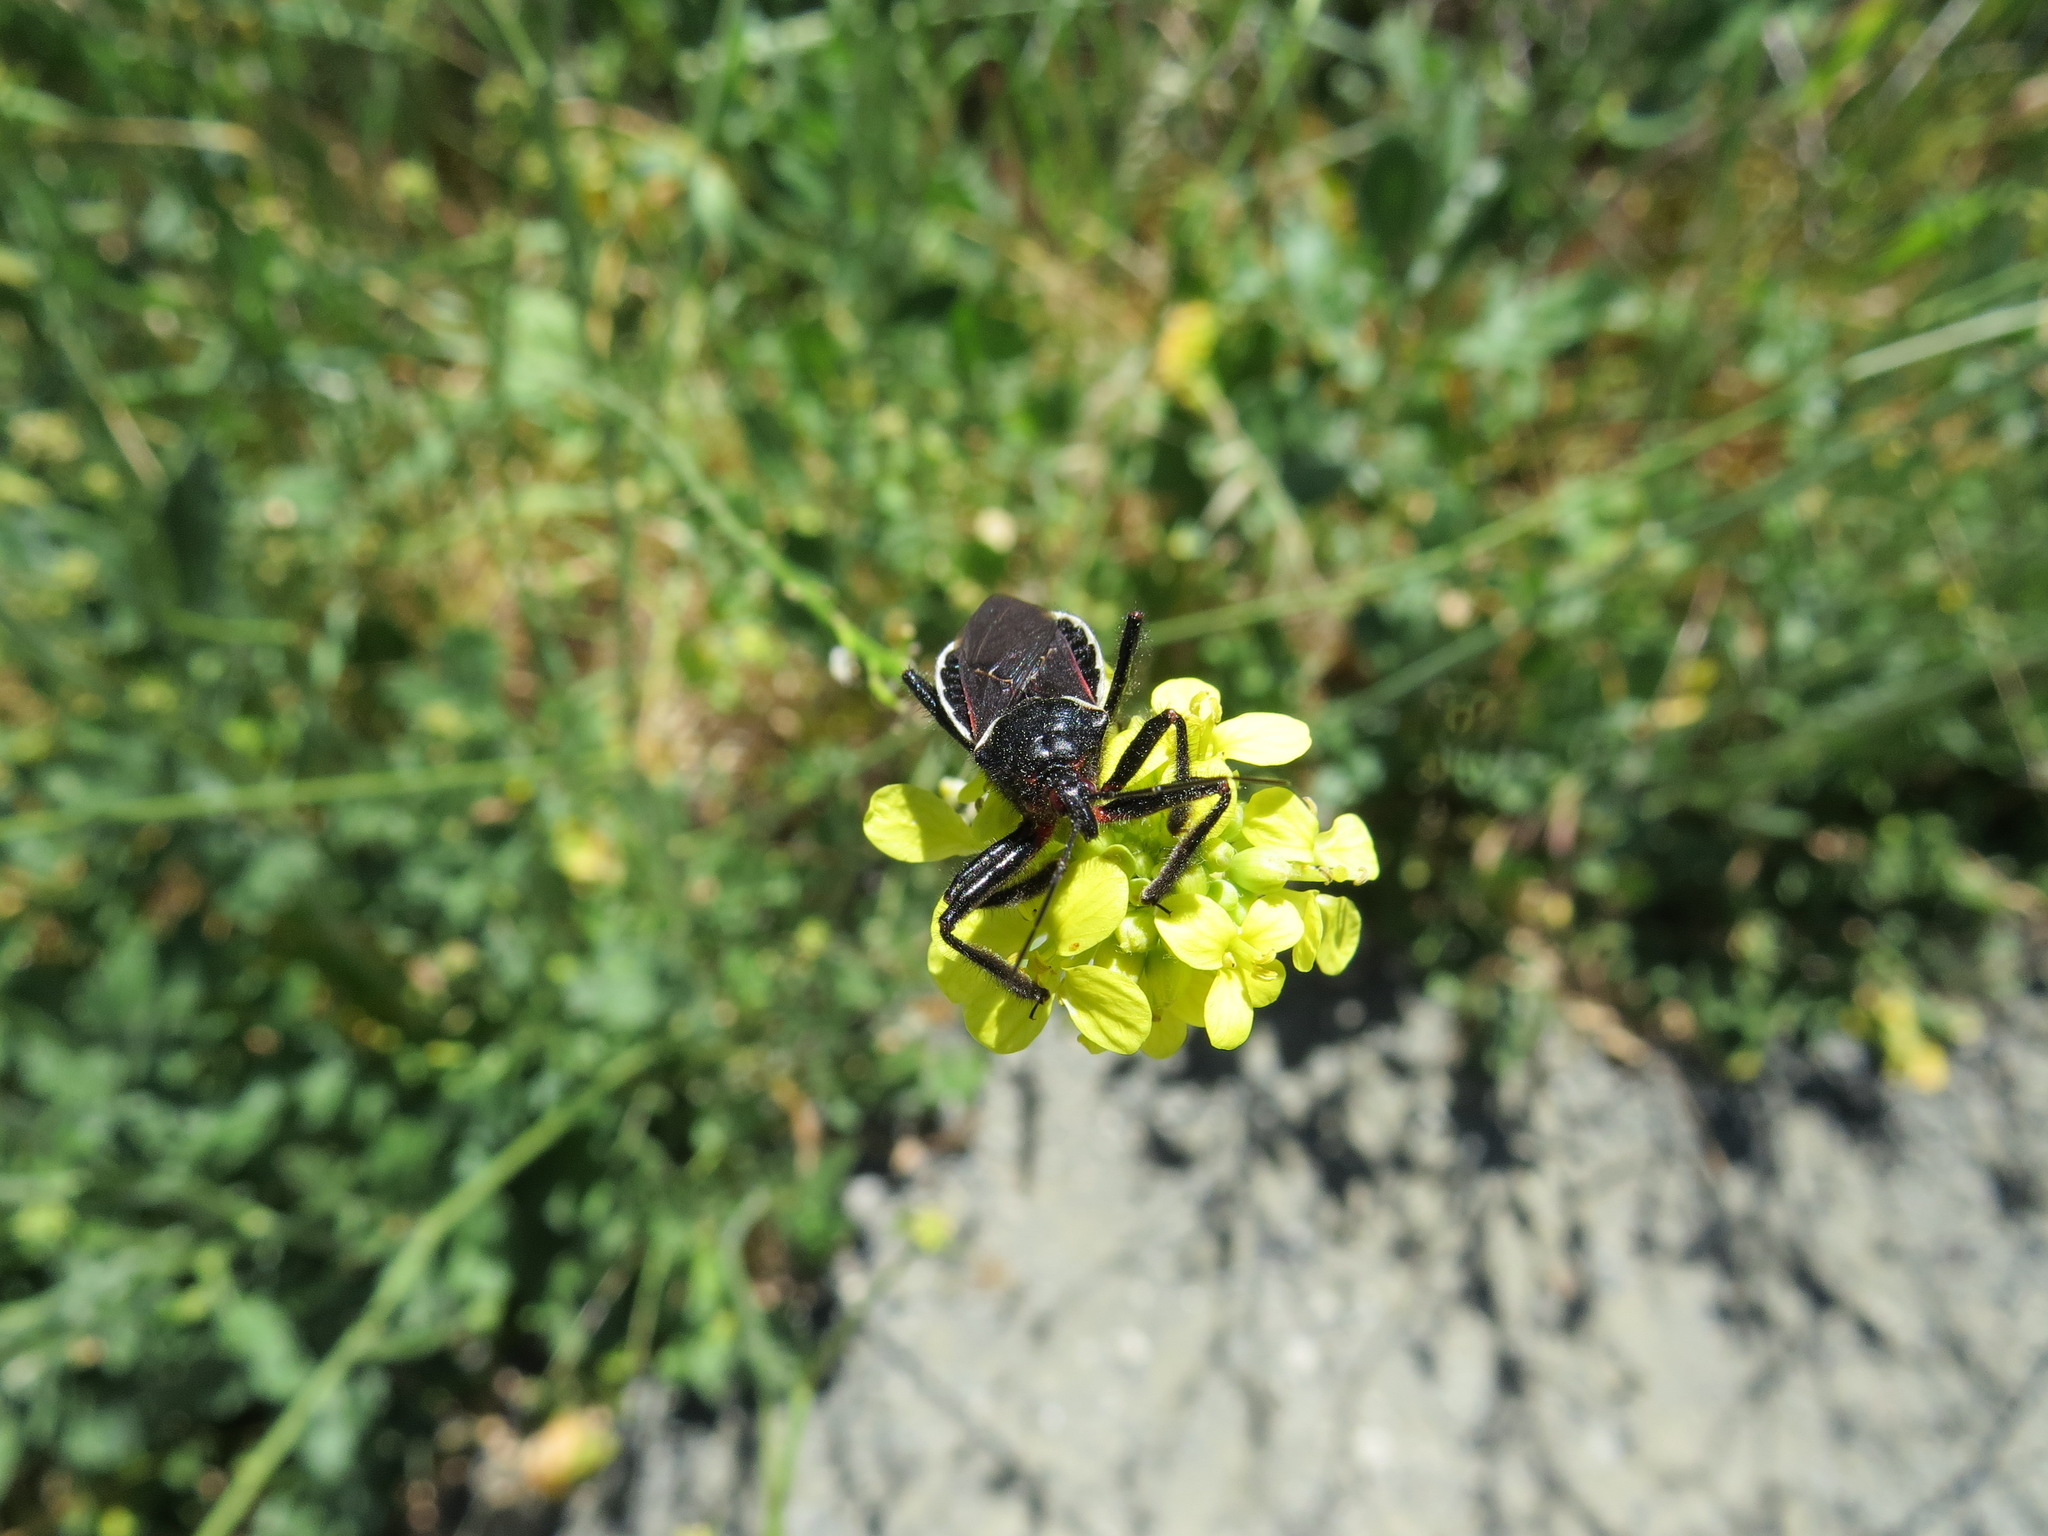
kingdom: Animalia
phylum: Arthropoda
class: Insecta
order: Hemiptera
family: Reduviidae
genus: Apiomerus
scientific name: Apiomerus californicus
